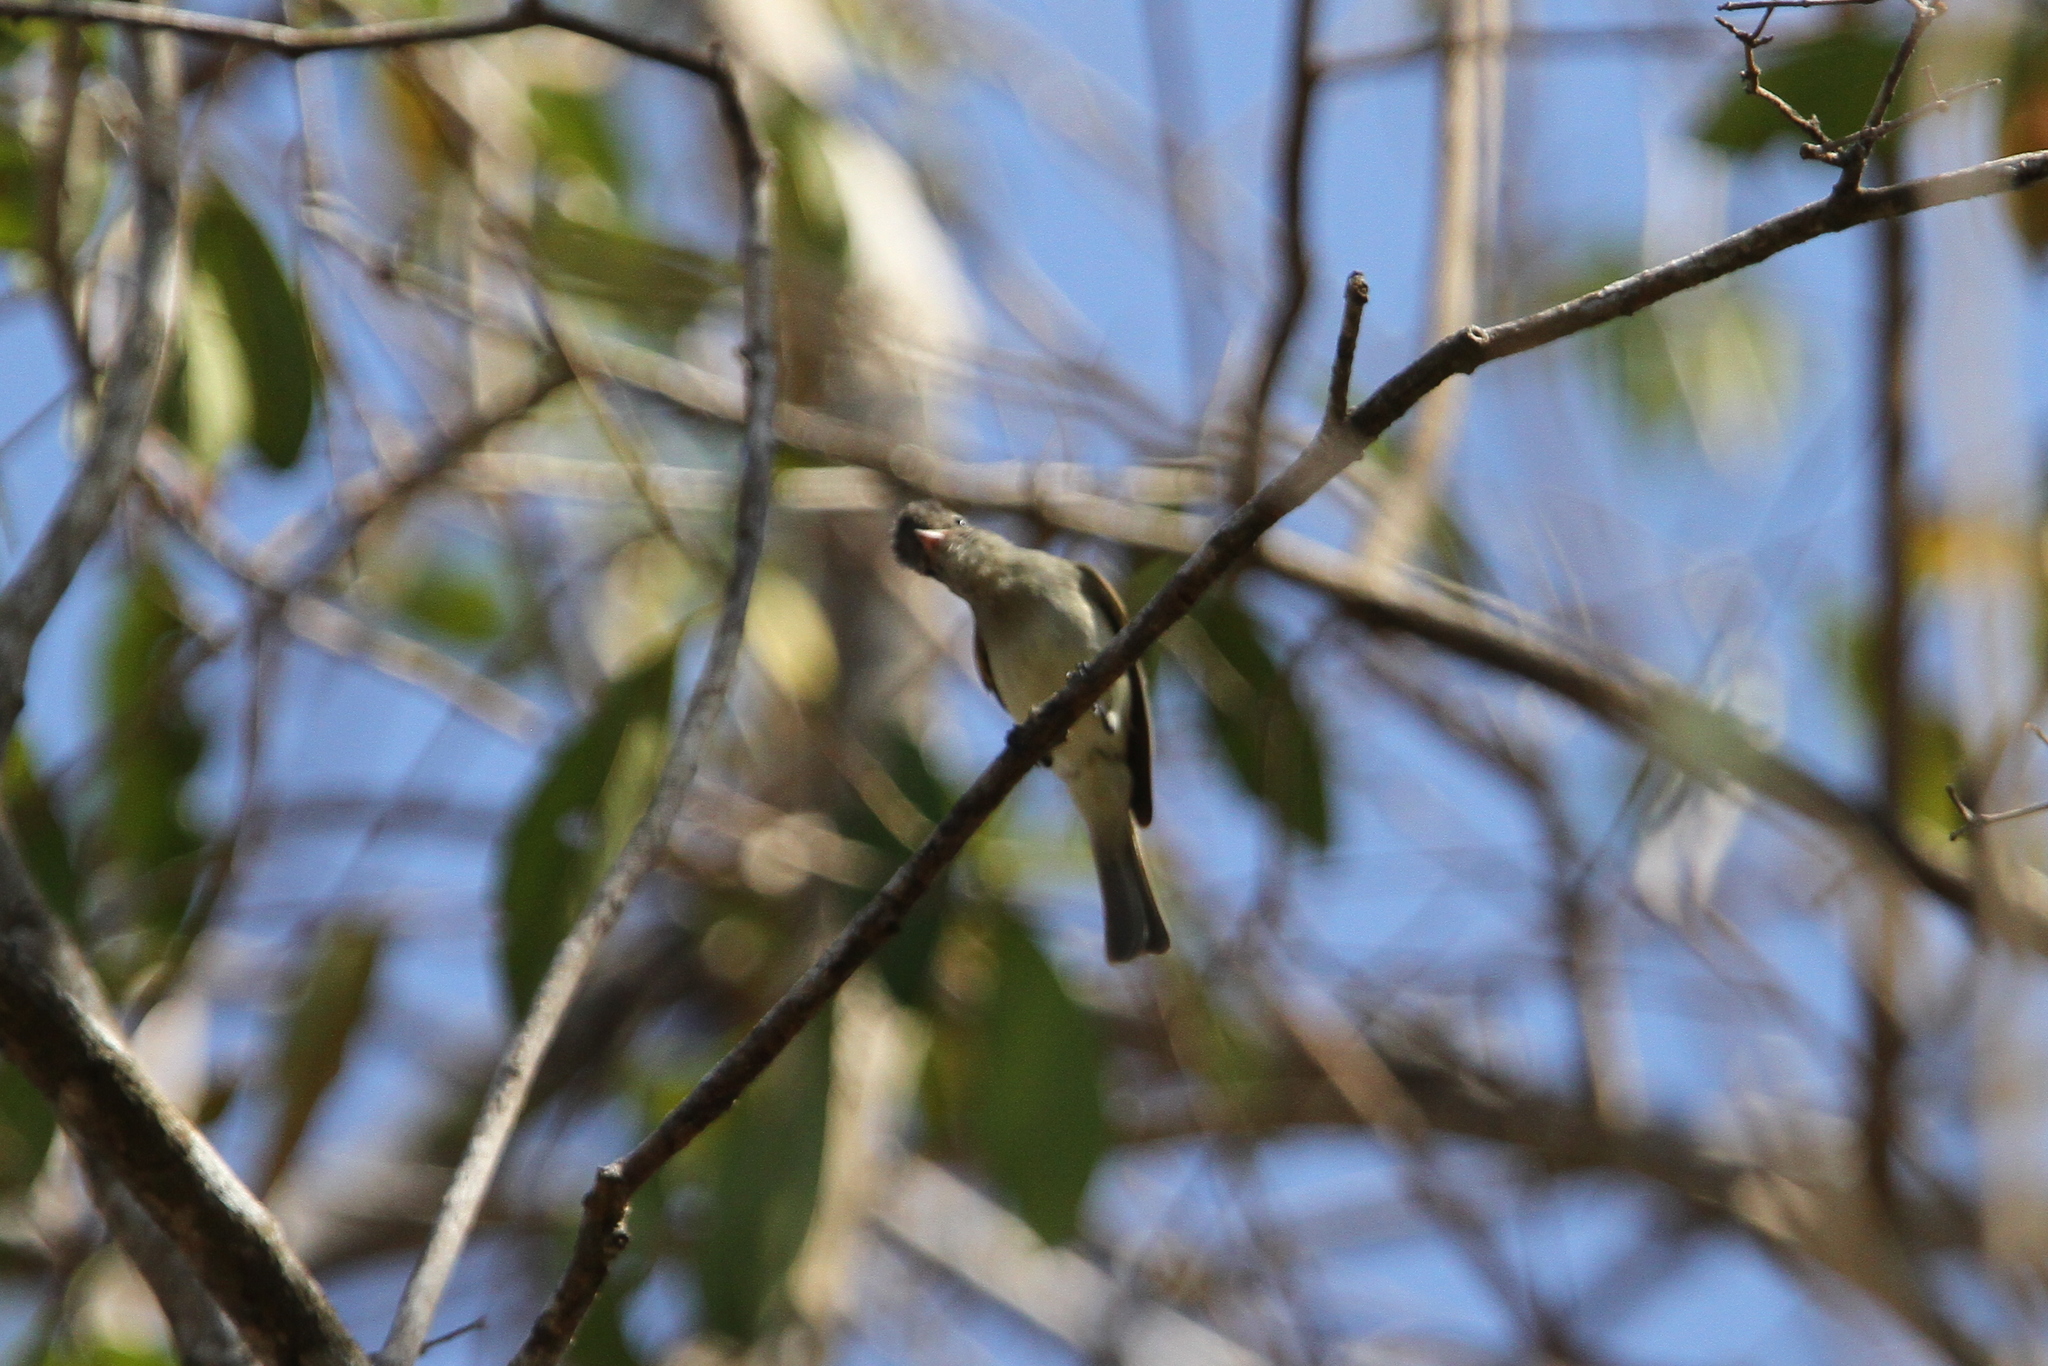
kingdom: Animalia
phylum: Chordata
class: Aves
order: Passeriformes
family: Tyrannidae
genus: Camptostoma
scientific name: Camptostoma imberbe
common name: Northern beardless-tyrannulet
